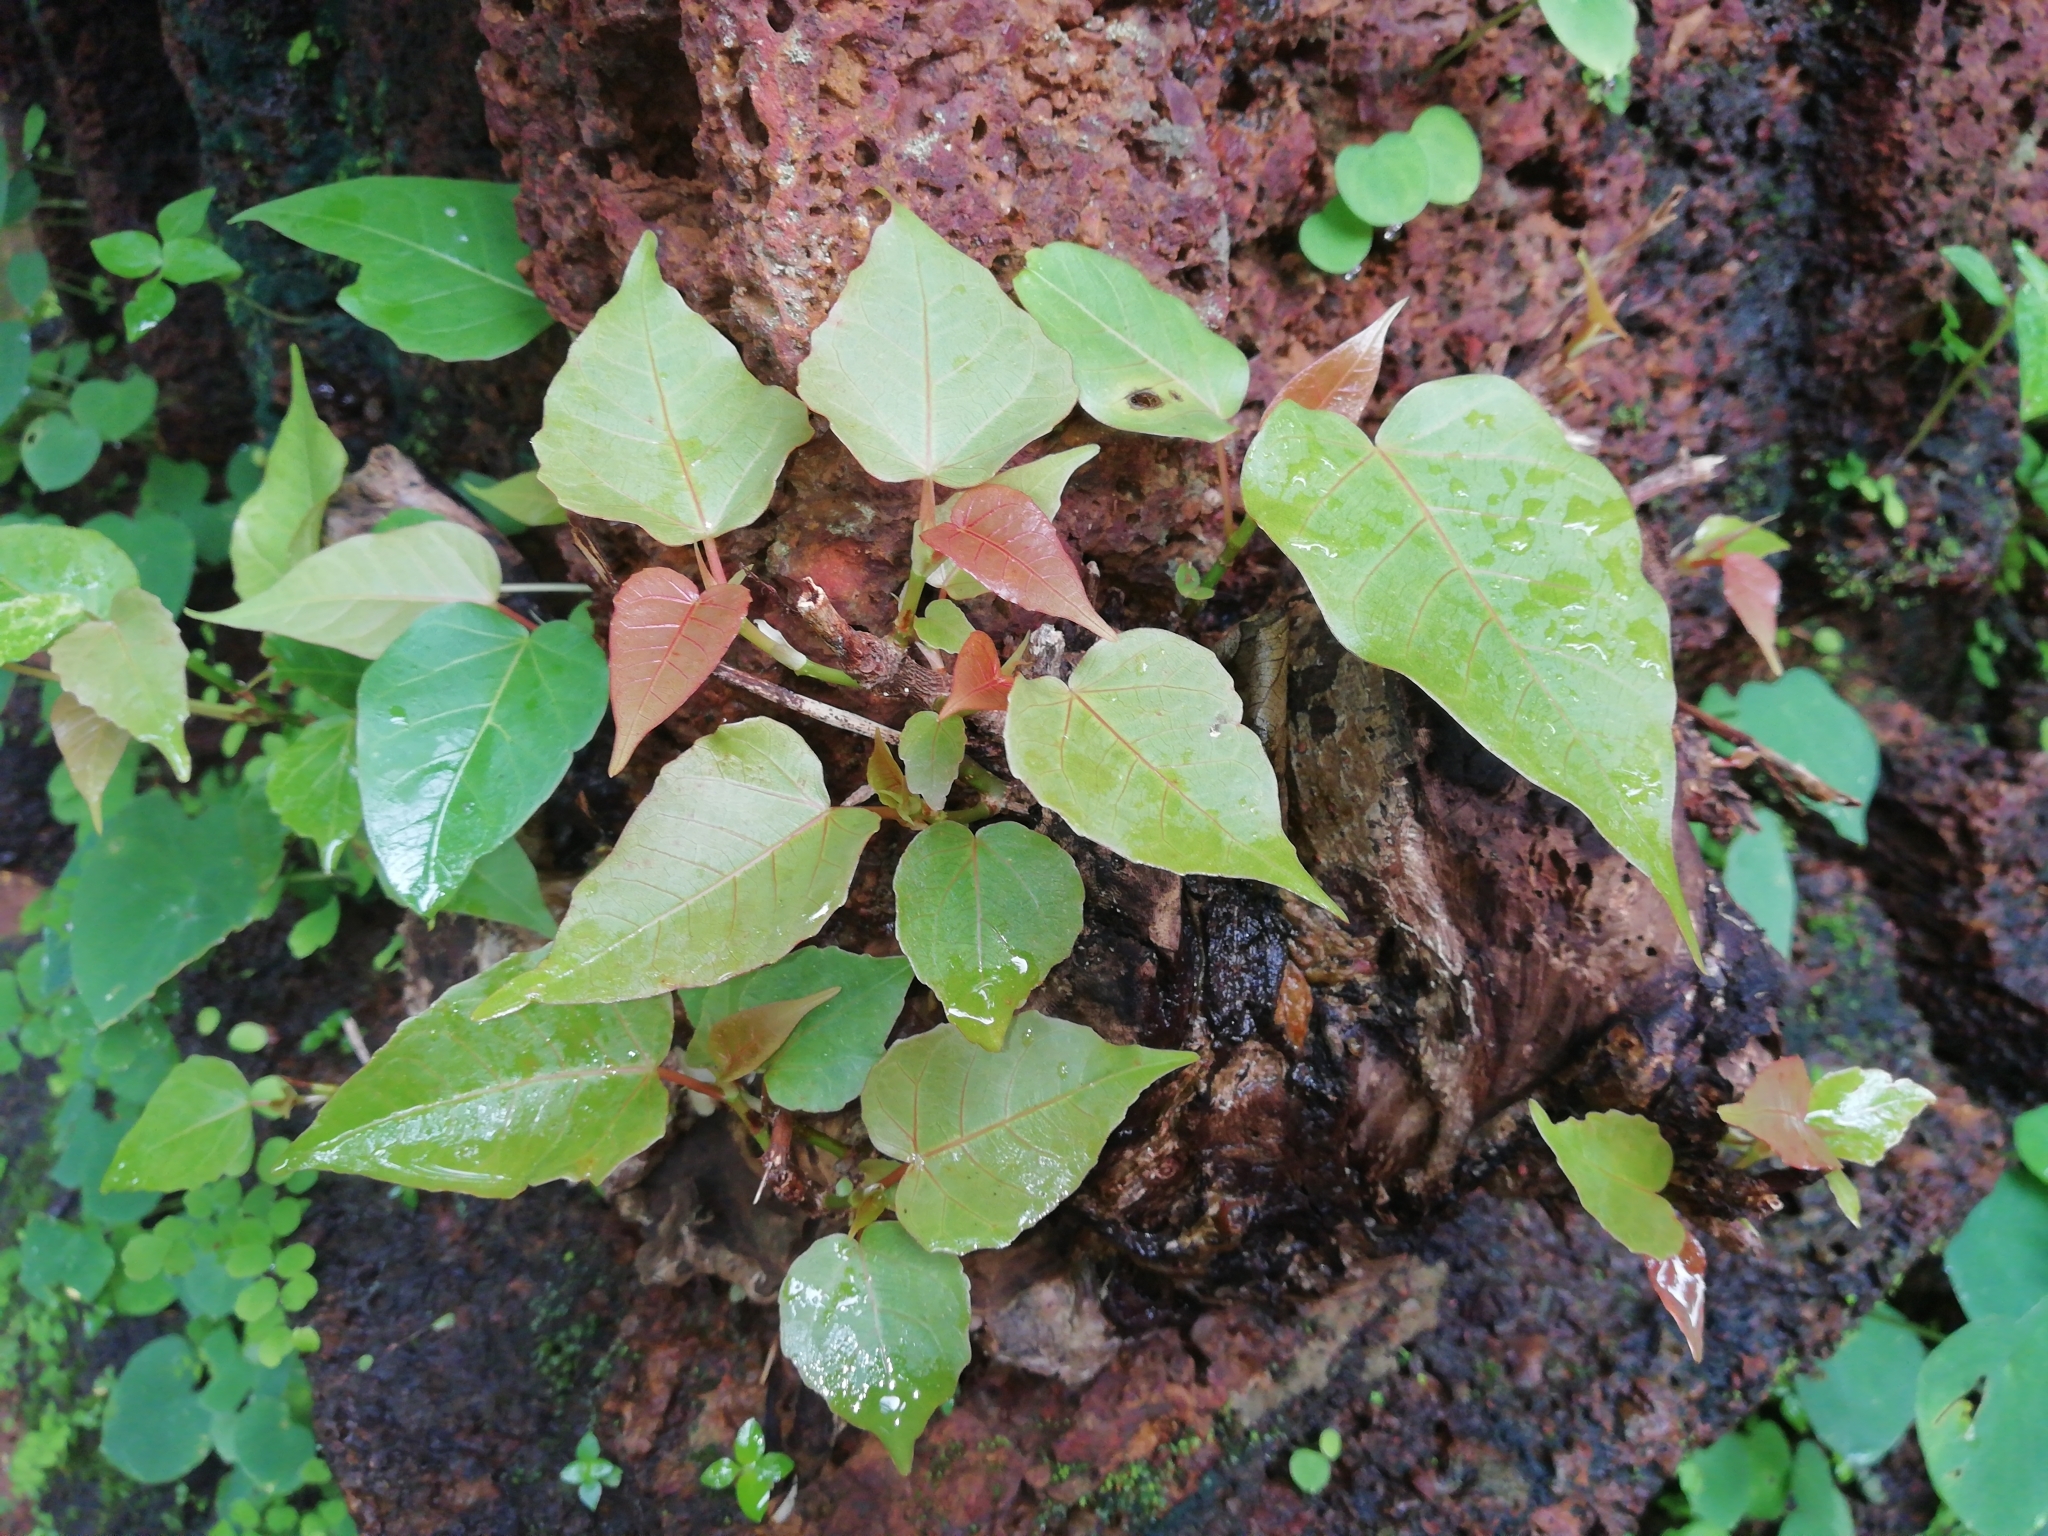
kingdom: Plantae
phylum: Tracheophyta
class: Magnoliopsida
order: Rosales
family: Moraceae
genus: Ficus
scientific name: Ficus religiosa
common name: Bodhi tree
